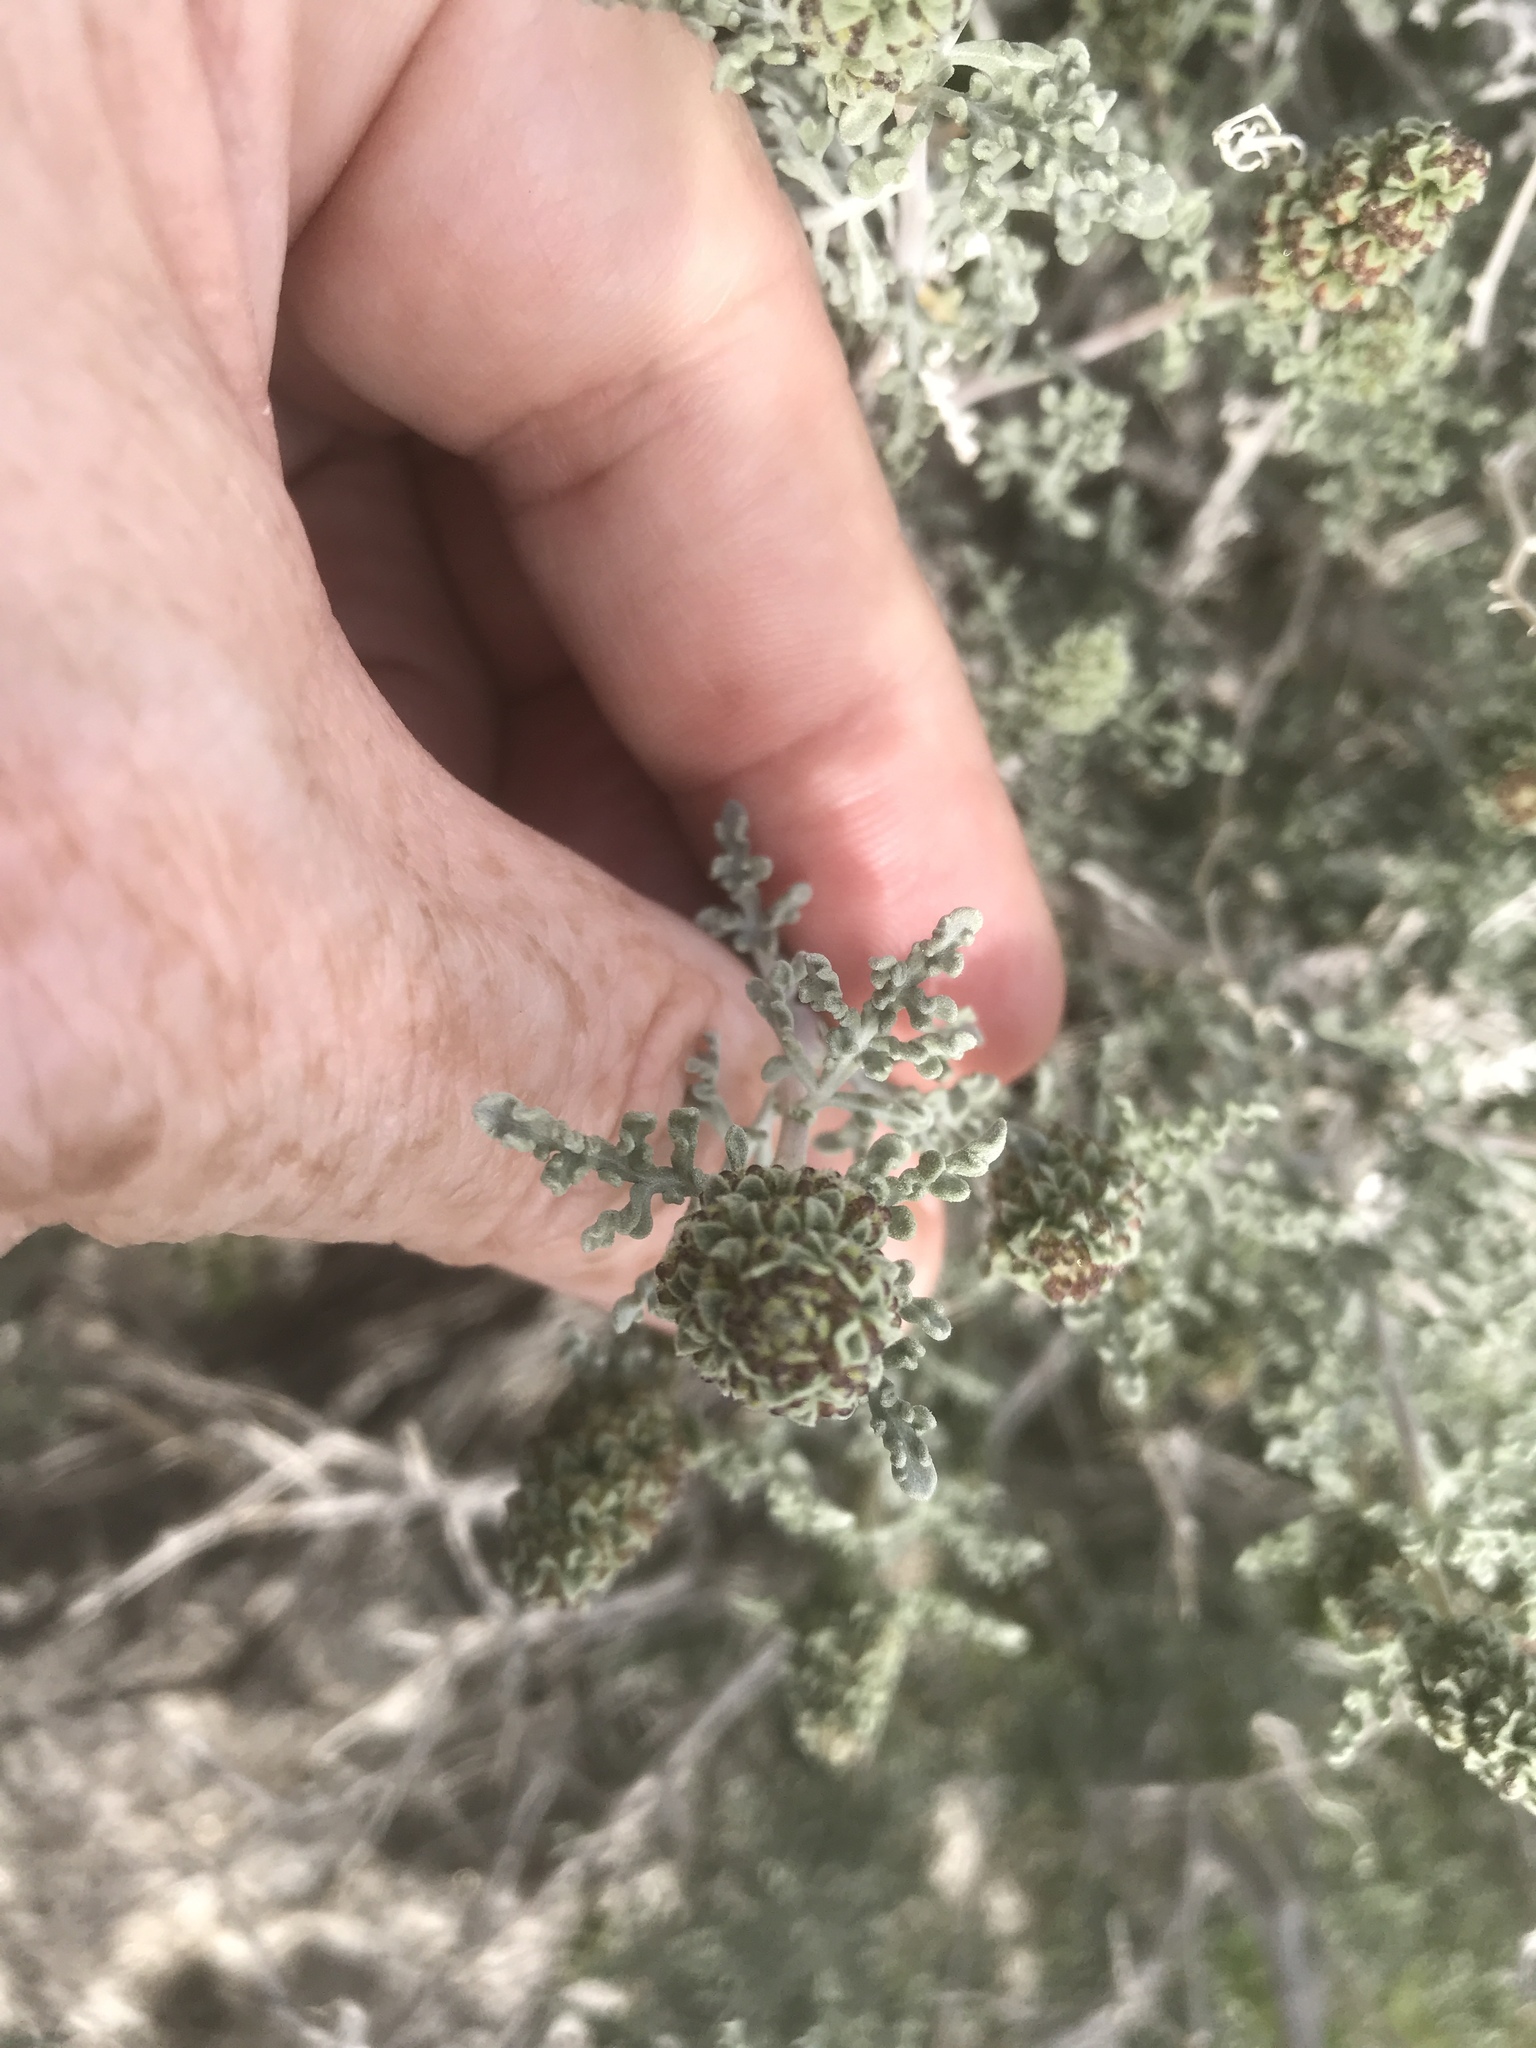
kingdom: Plantae
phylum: Tracheophyta
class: Magnoliopsida
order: Asterales
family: Asteraceae
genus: Ambrosia
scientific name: Ambrosia dumosa
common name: Bur-sage
